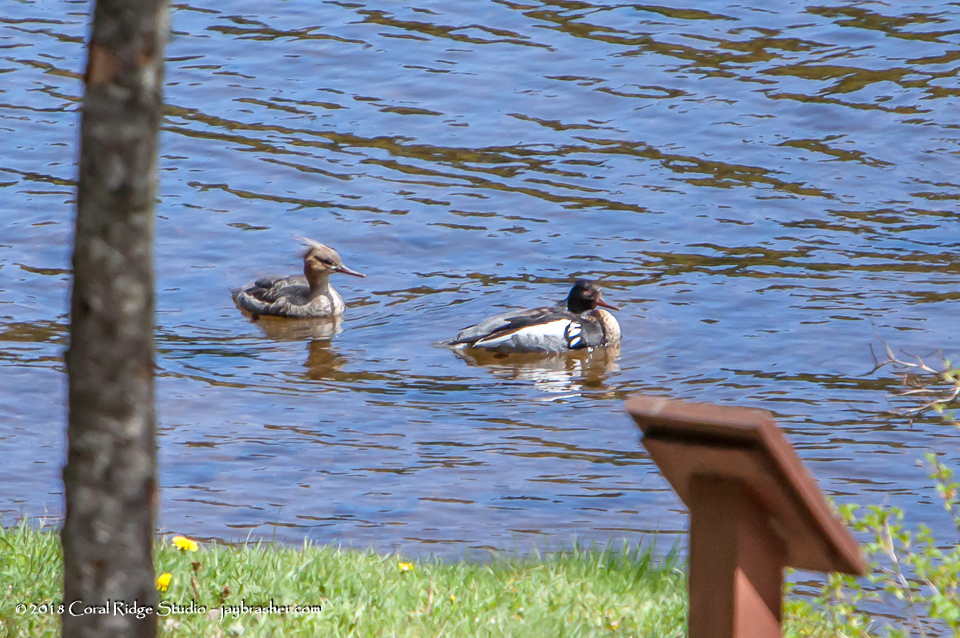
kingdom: Animalia
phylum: Chordata
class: Aves
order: Anseriformes
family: Anatidae
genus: Mergus
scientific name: Mergus serrator
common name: Red-breasted merganser
